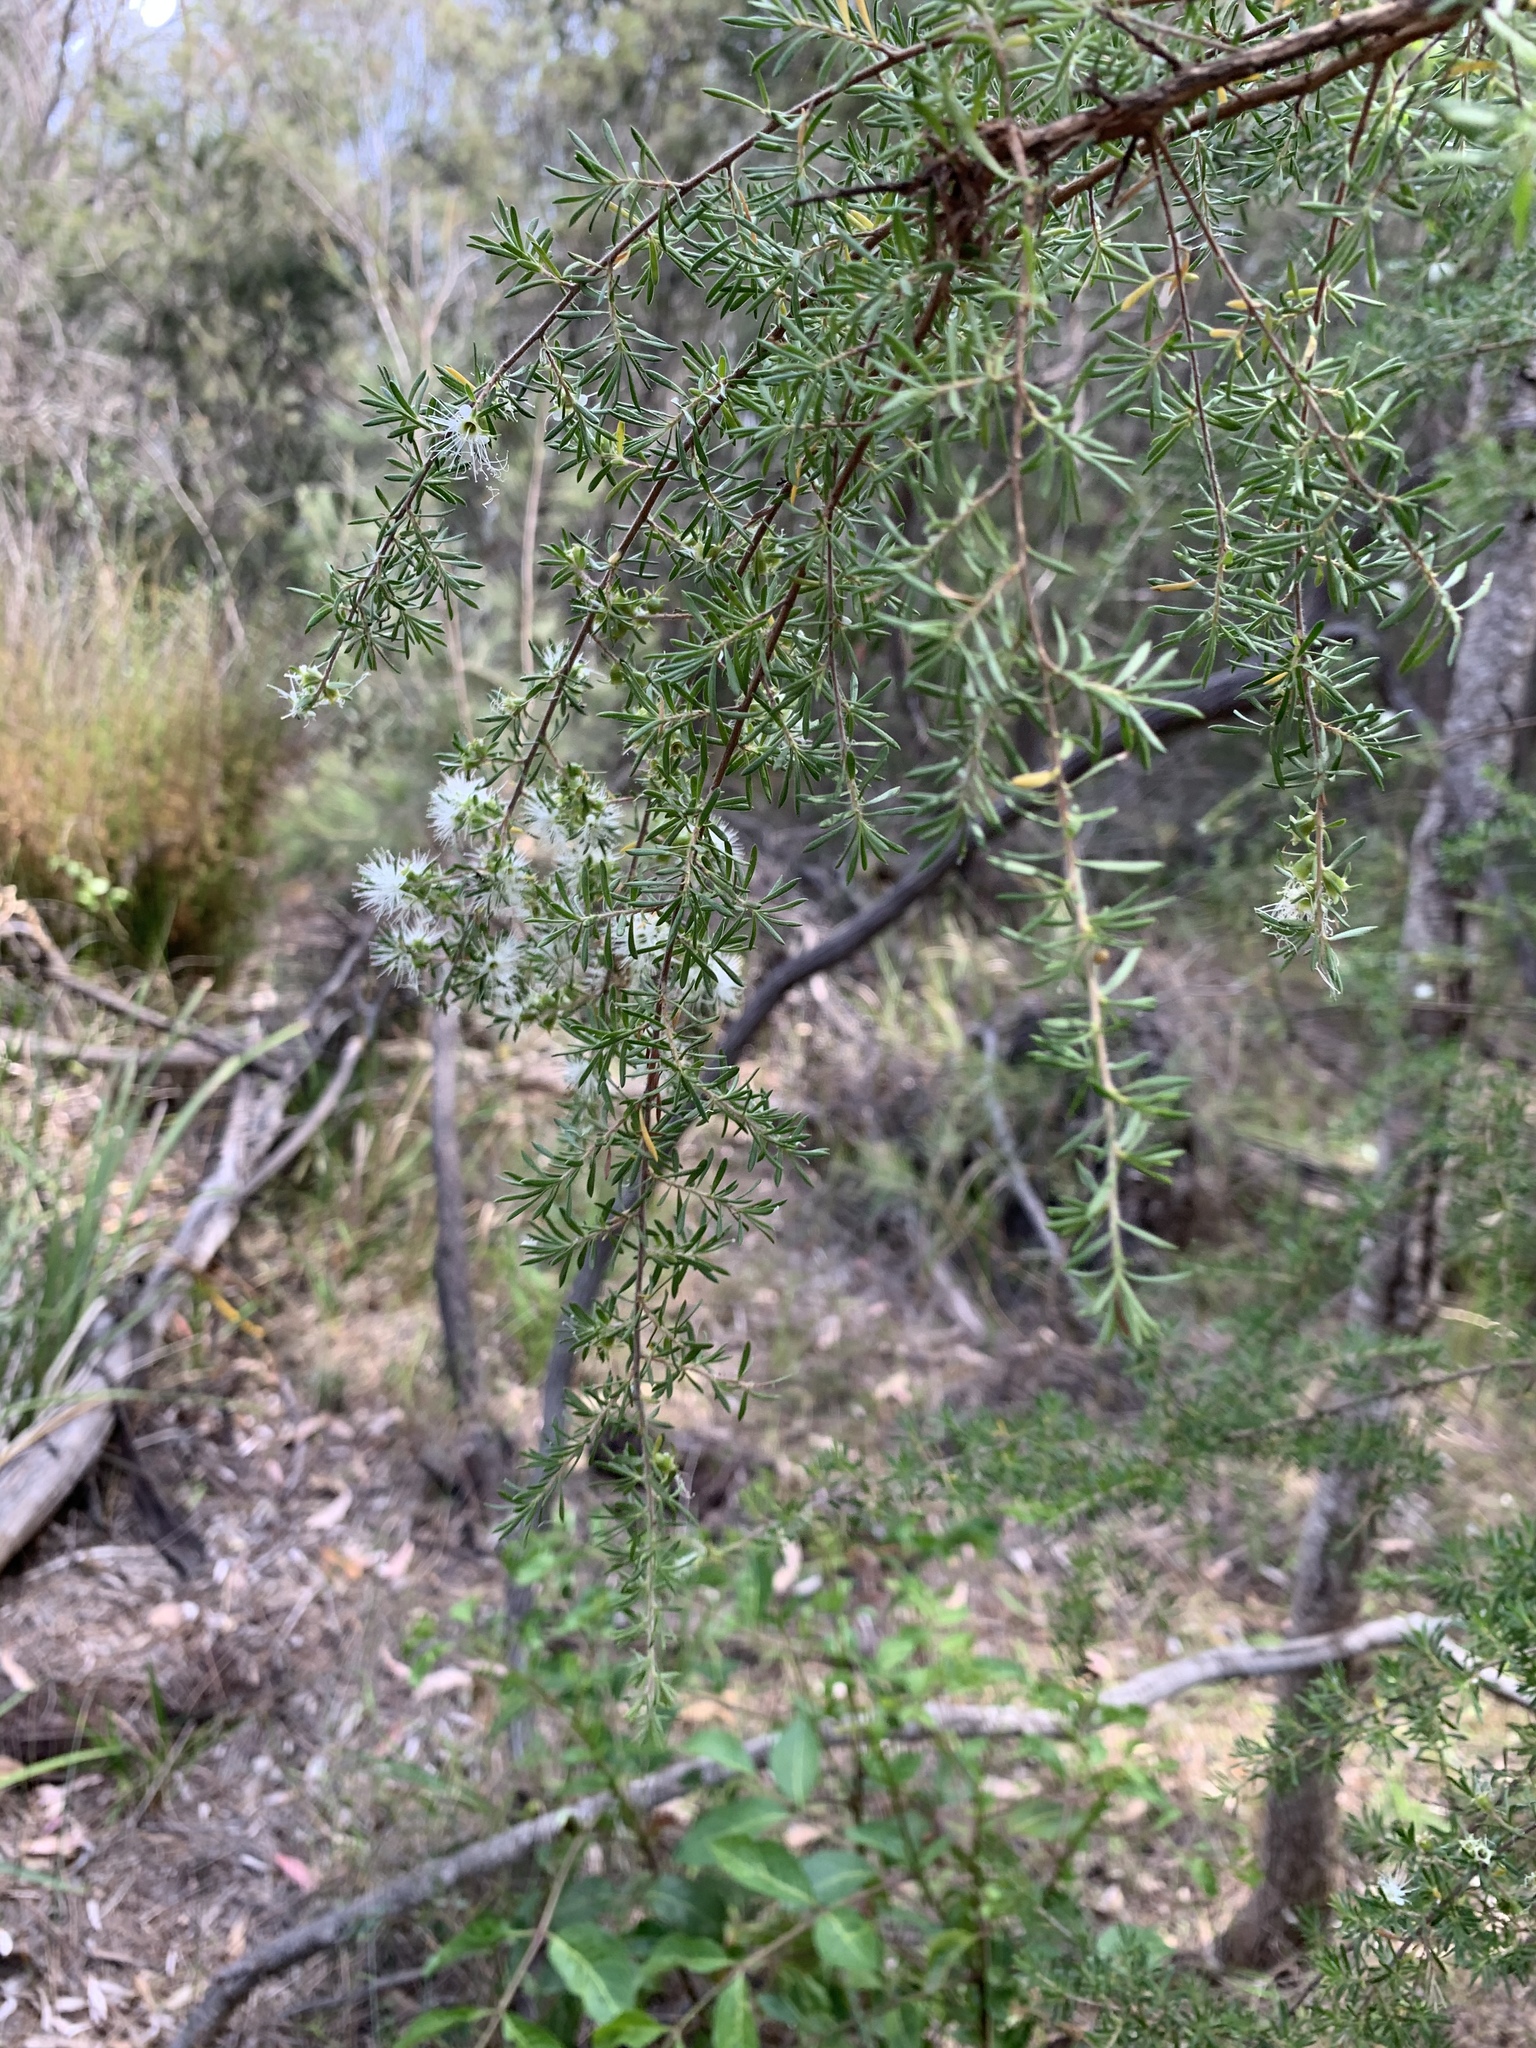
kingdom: Plantae
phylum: Tracheophyta
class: Magnoliopsida
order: Myrtales
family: Myrtaceae
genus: Kunzea
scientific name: Kunzea ambigua
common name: Tickbush
